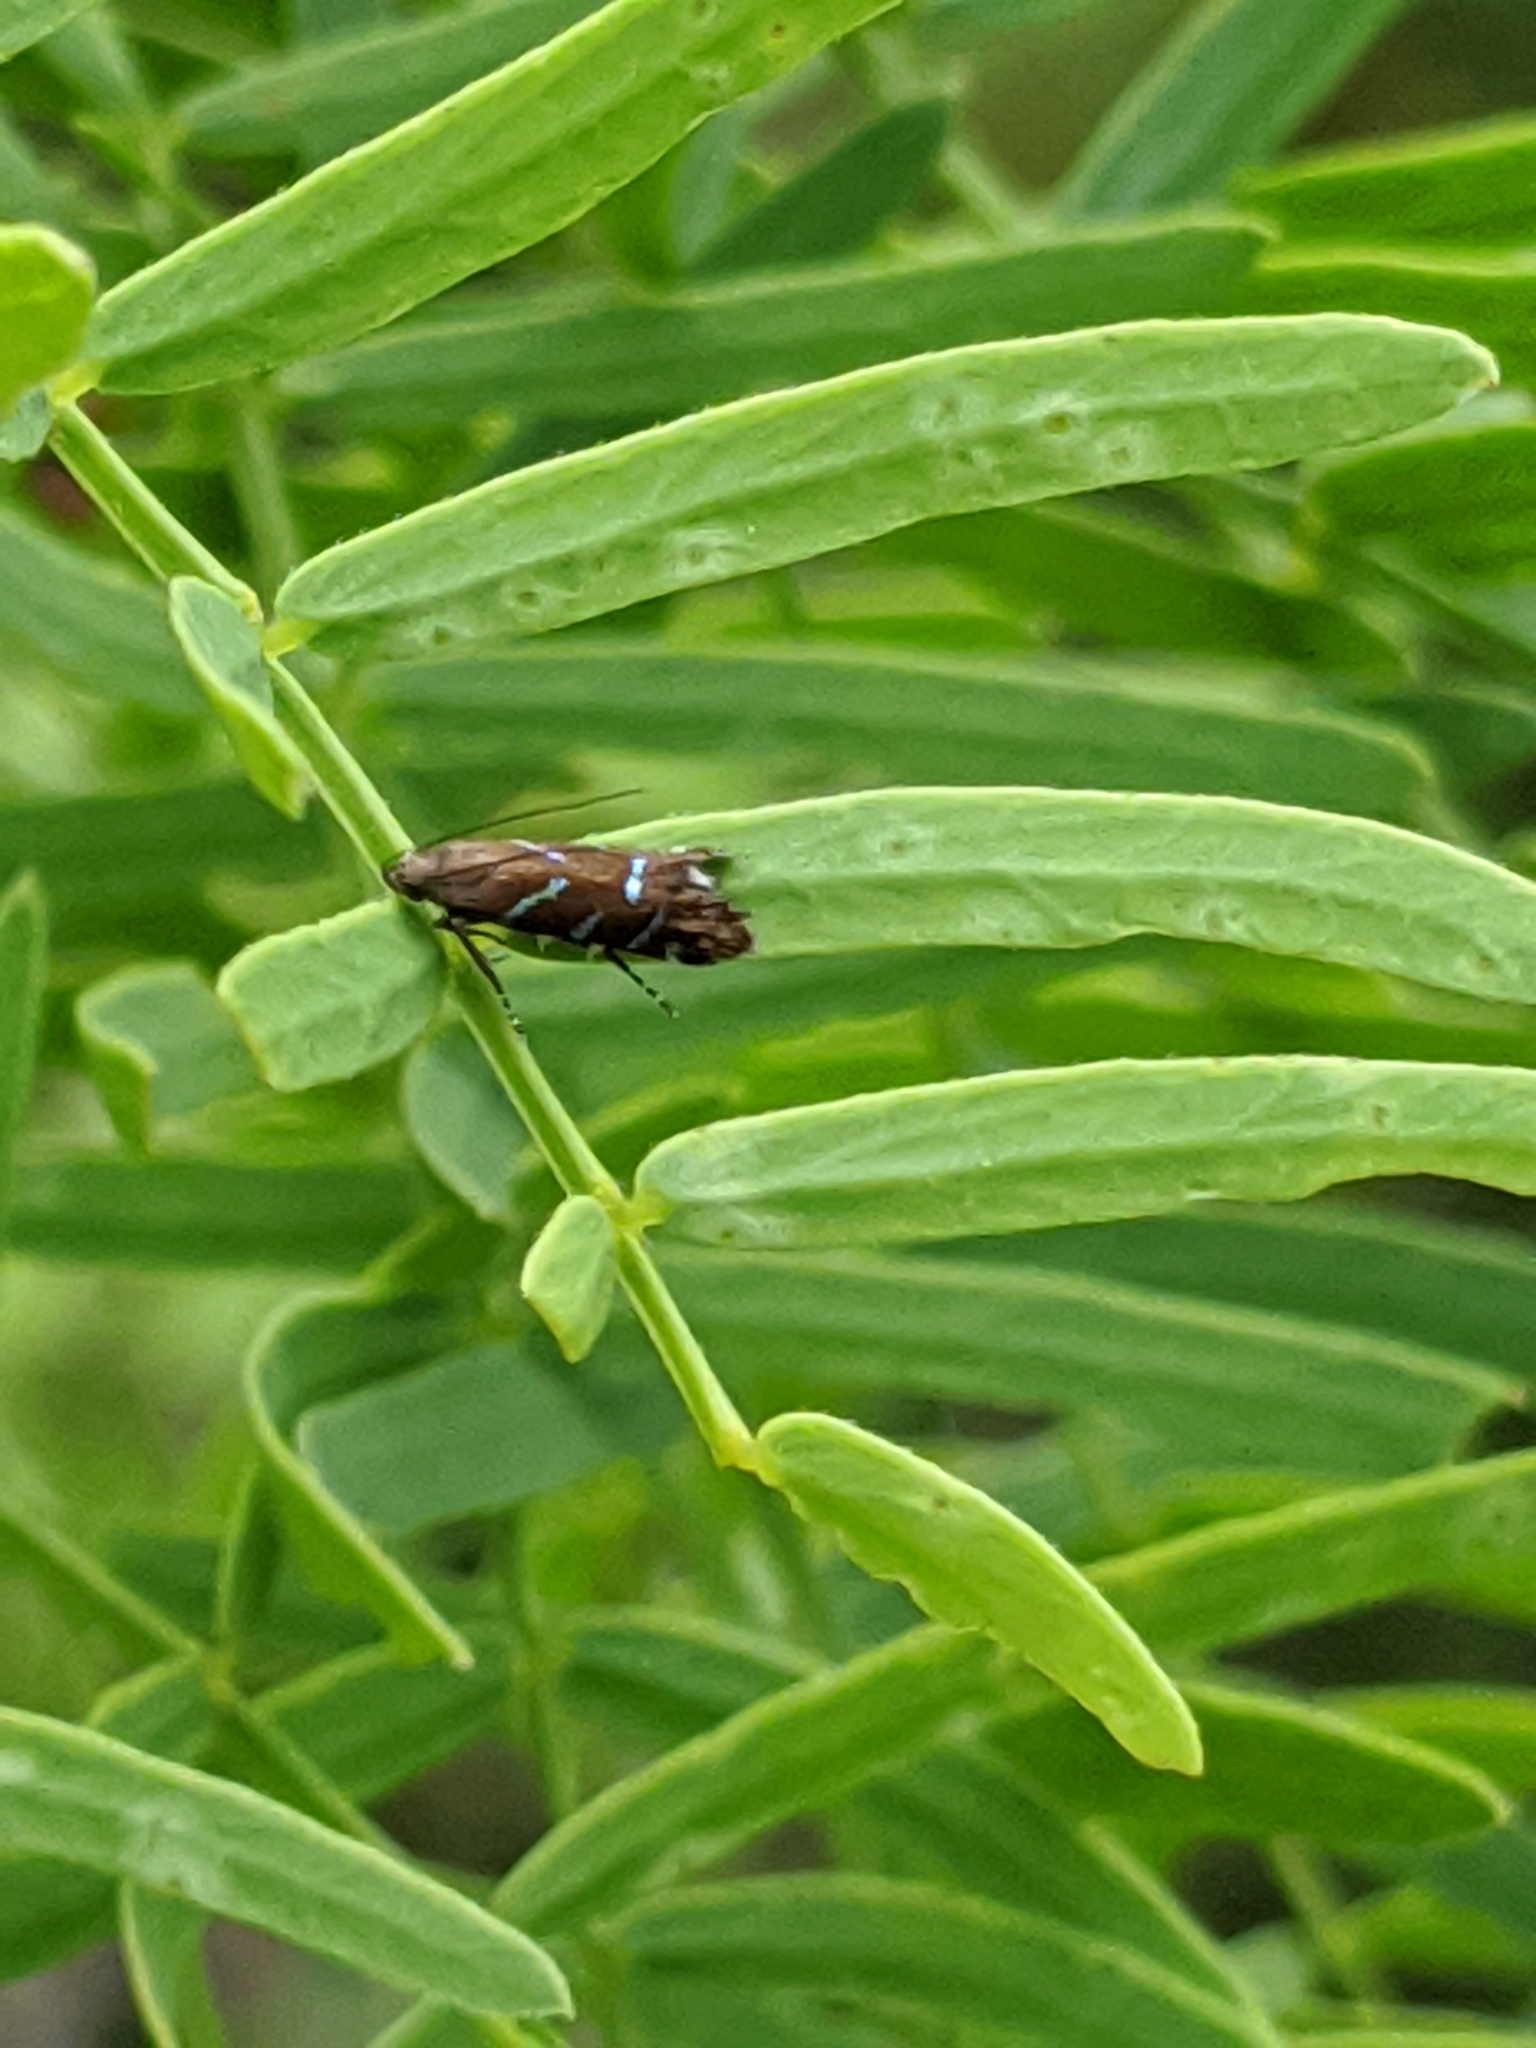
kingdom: Animalia
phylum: Arthropoda
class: Insecta
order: Lepidoptera
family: Gelechiidae
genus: Strobisia
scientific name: Strobisia proserpinella
